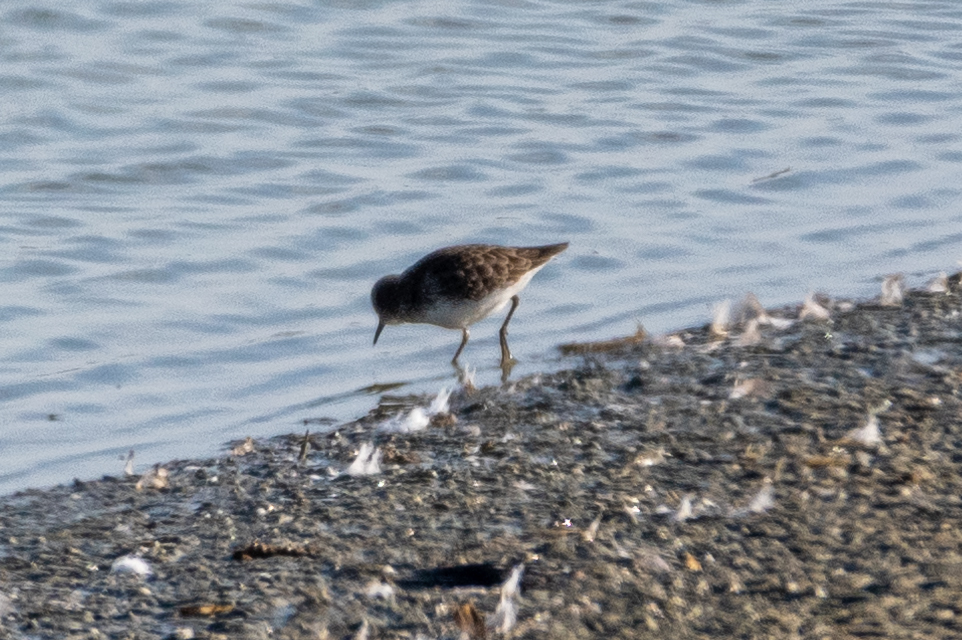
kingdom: Animalia
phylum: Chordata
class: Aves
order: Charadriiformes
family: Scolopacidae
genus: Calidris
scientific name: Calidris minutilla
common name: Least sandpiper
